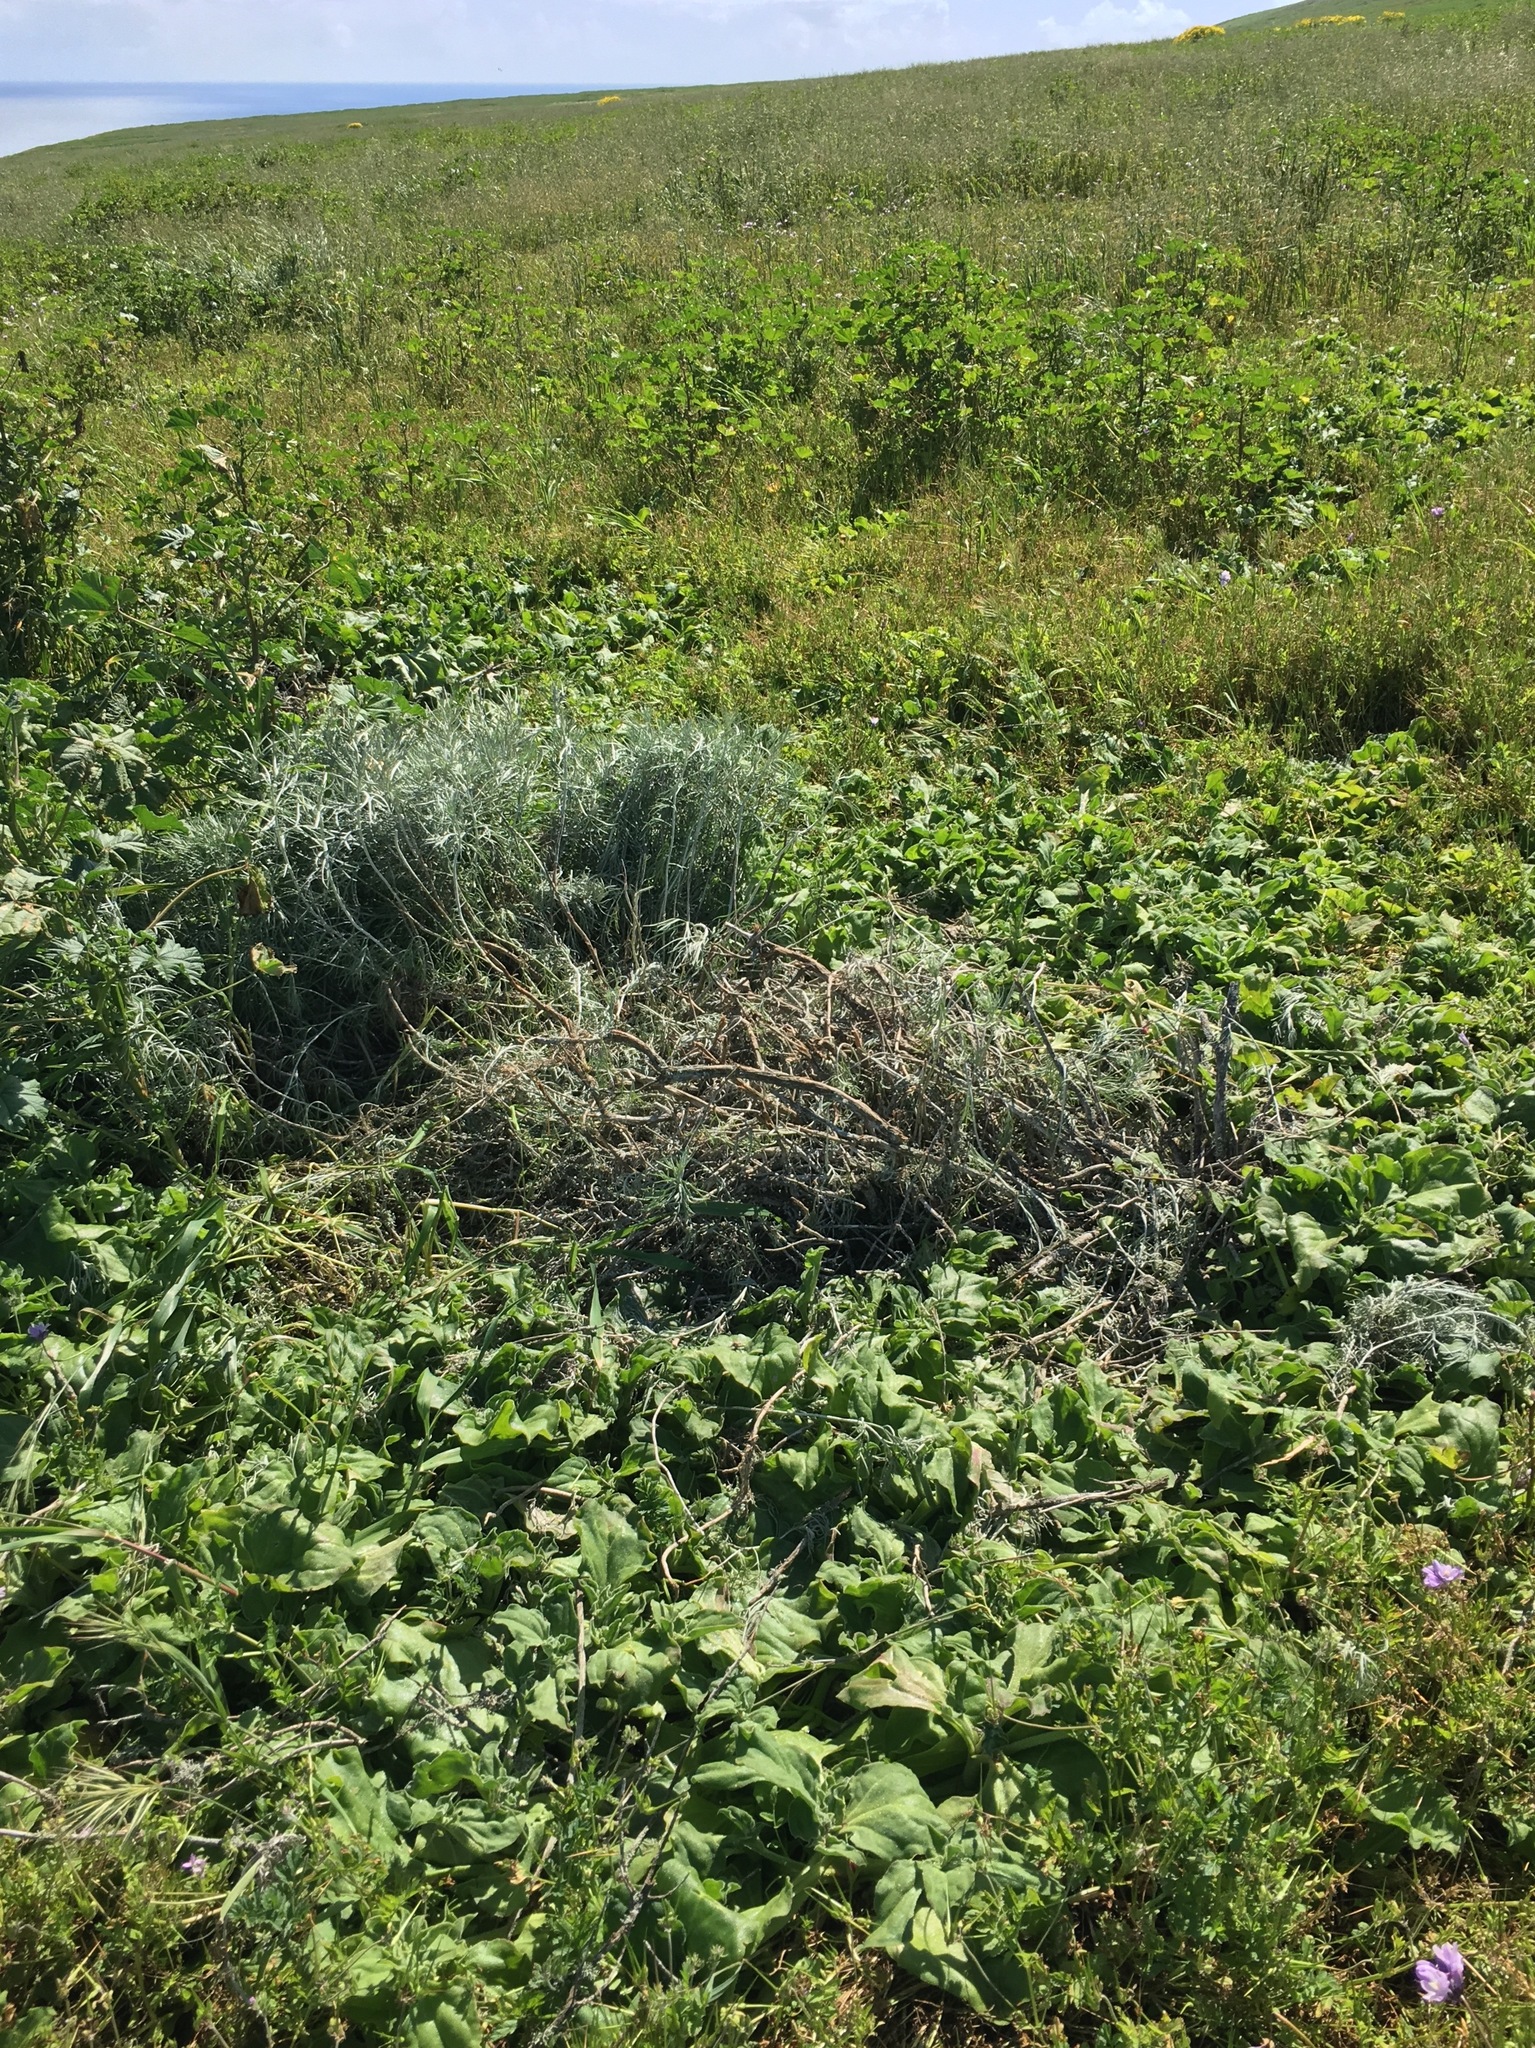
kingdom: Plantae
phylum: Tracheophyta
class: Magnoliopsida
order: Asterales
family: Asteraceae
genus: Artemisia
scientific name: Artemisia nesiotica
